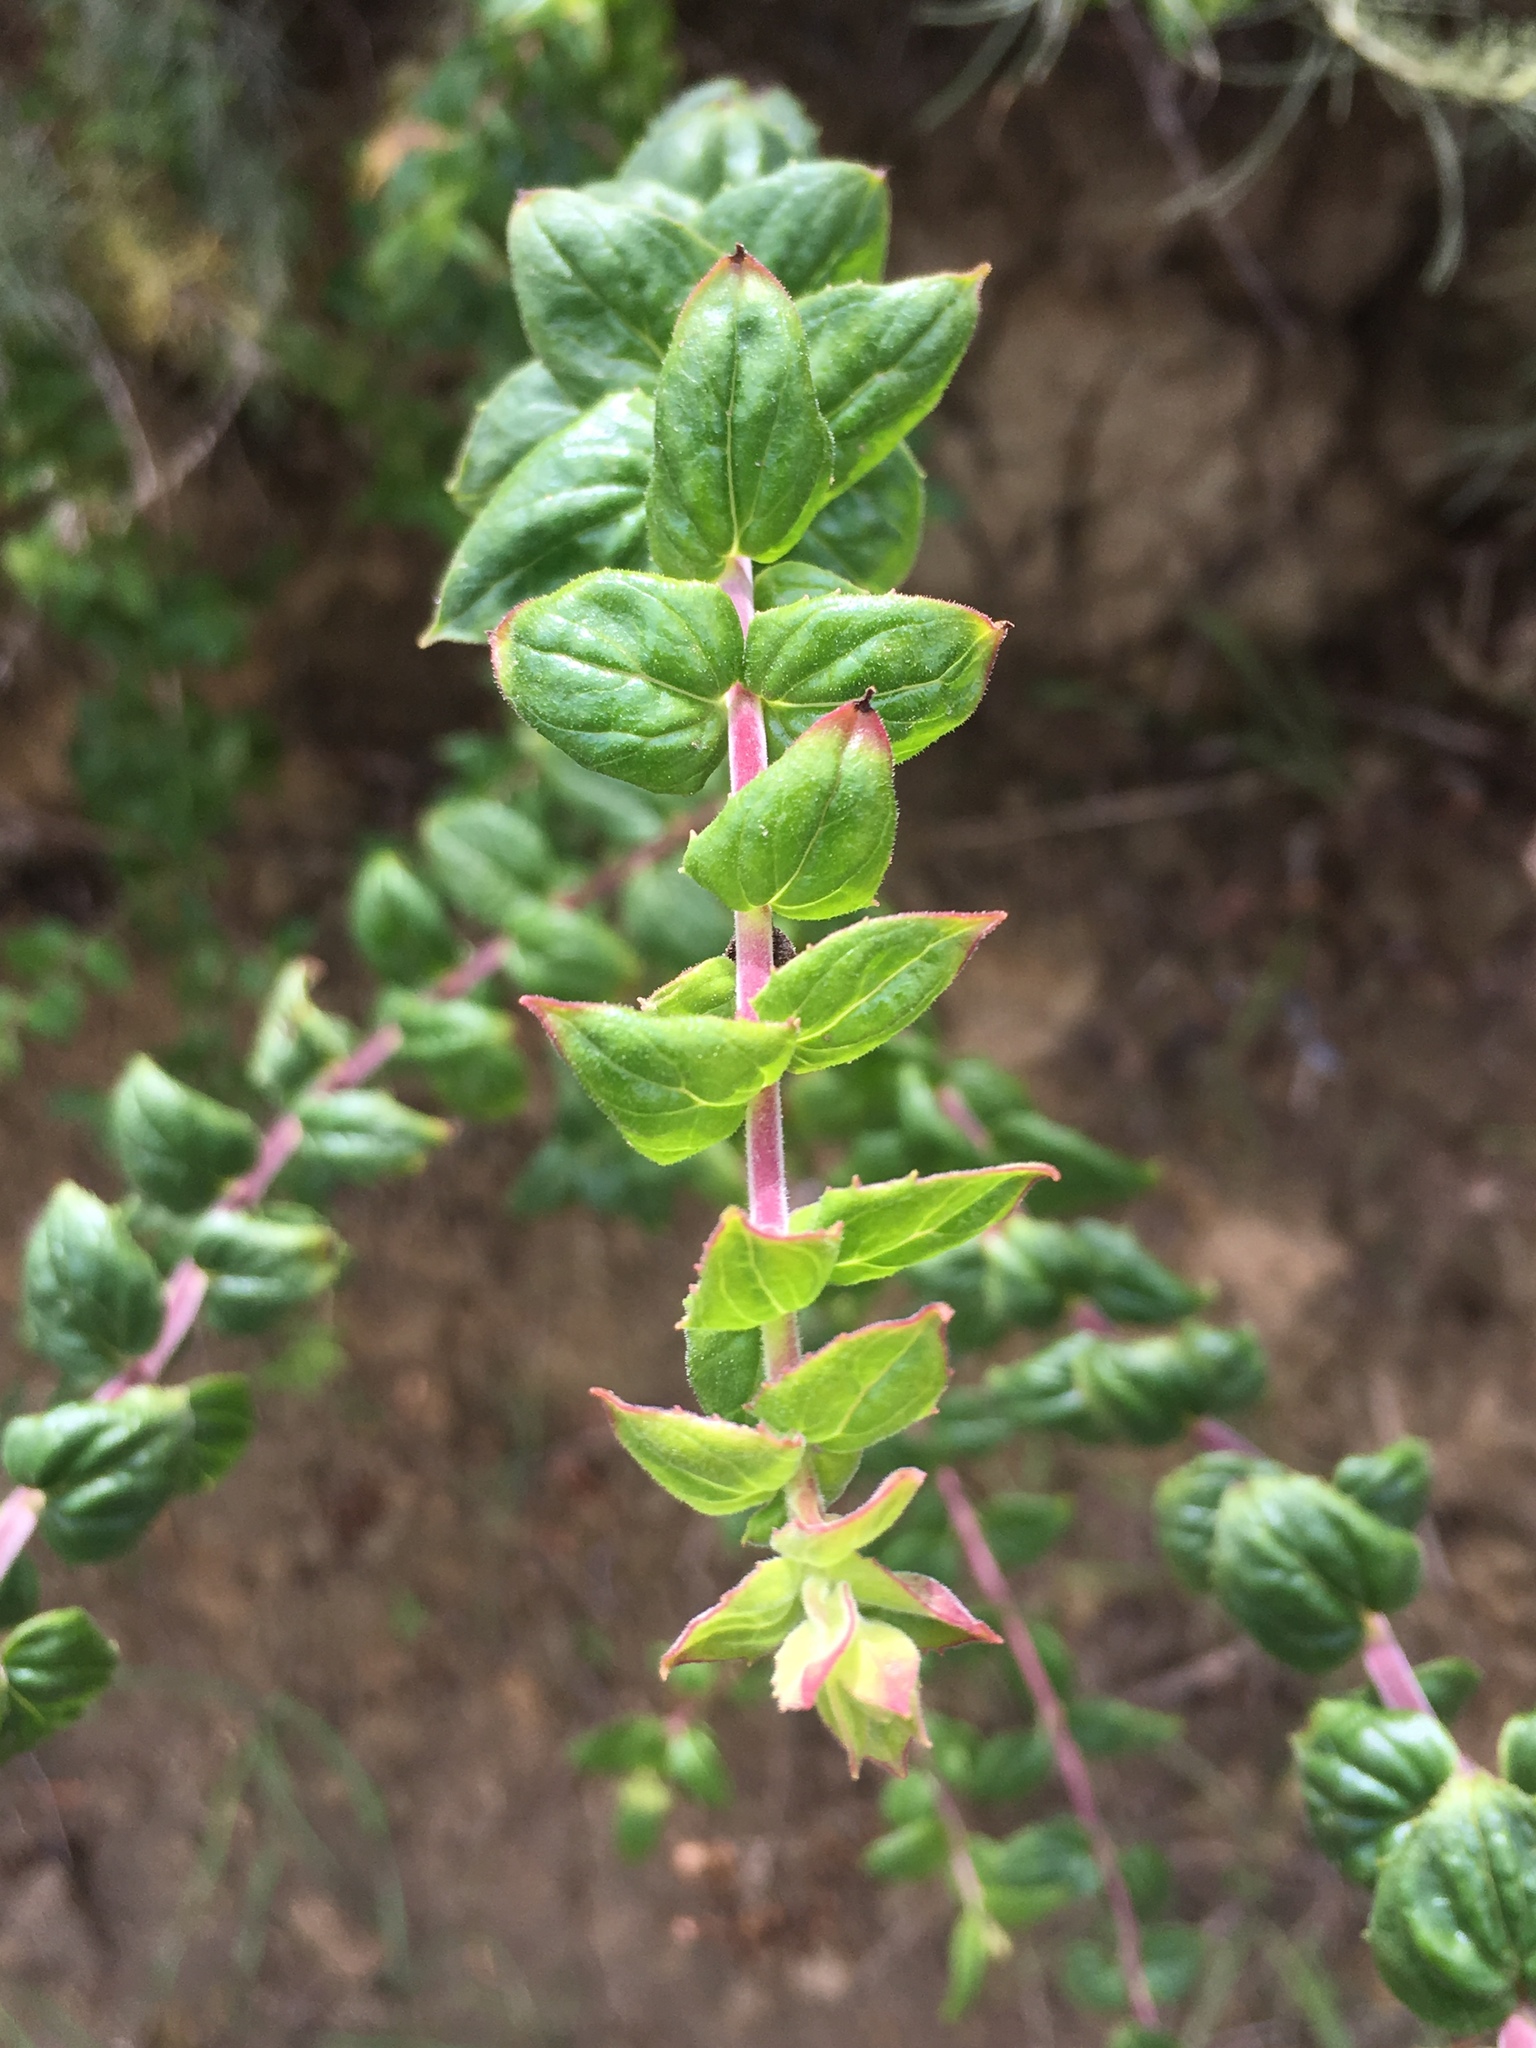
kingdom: Plantae
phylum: Tracheophyta
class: Magnoliopsida
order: Lamiales
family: Plantaginaceae
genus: Keckiella
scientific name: Keckiella cordifolia
